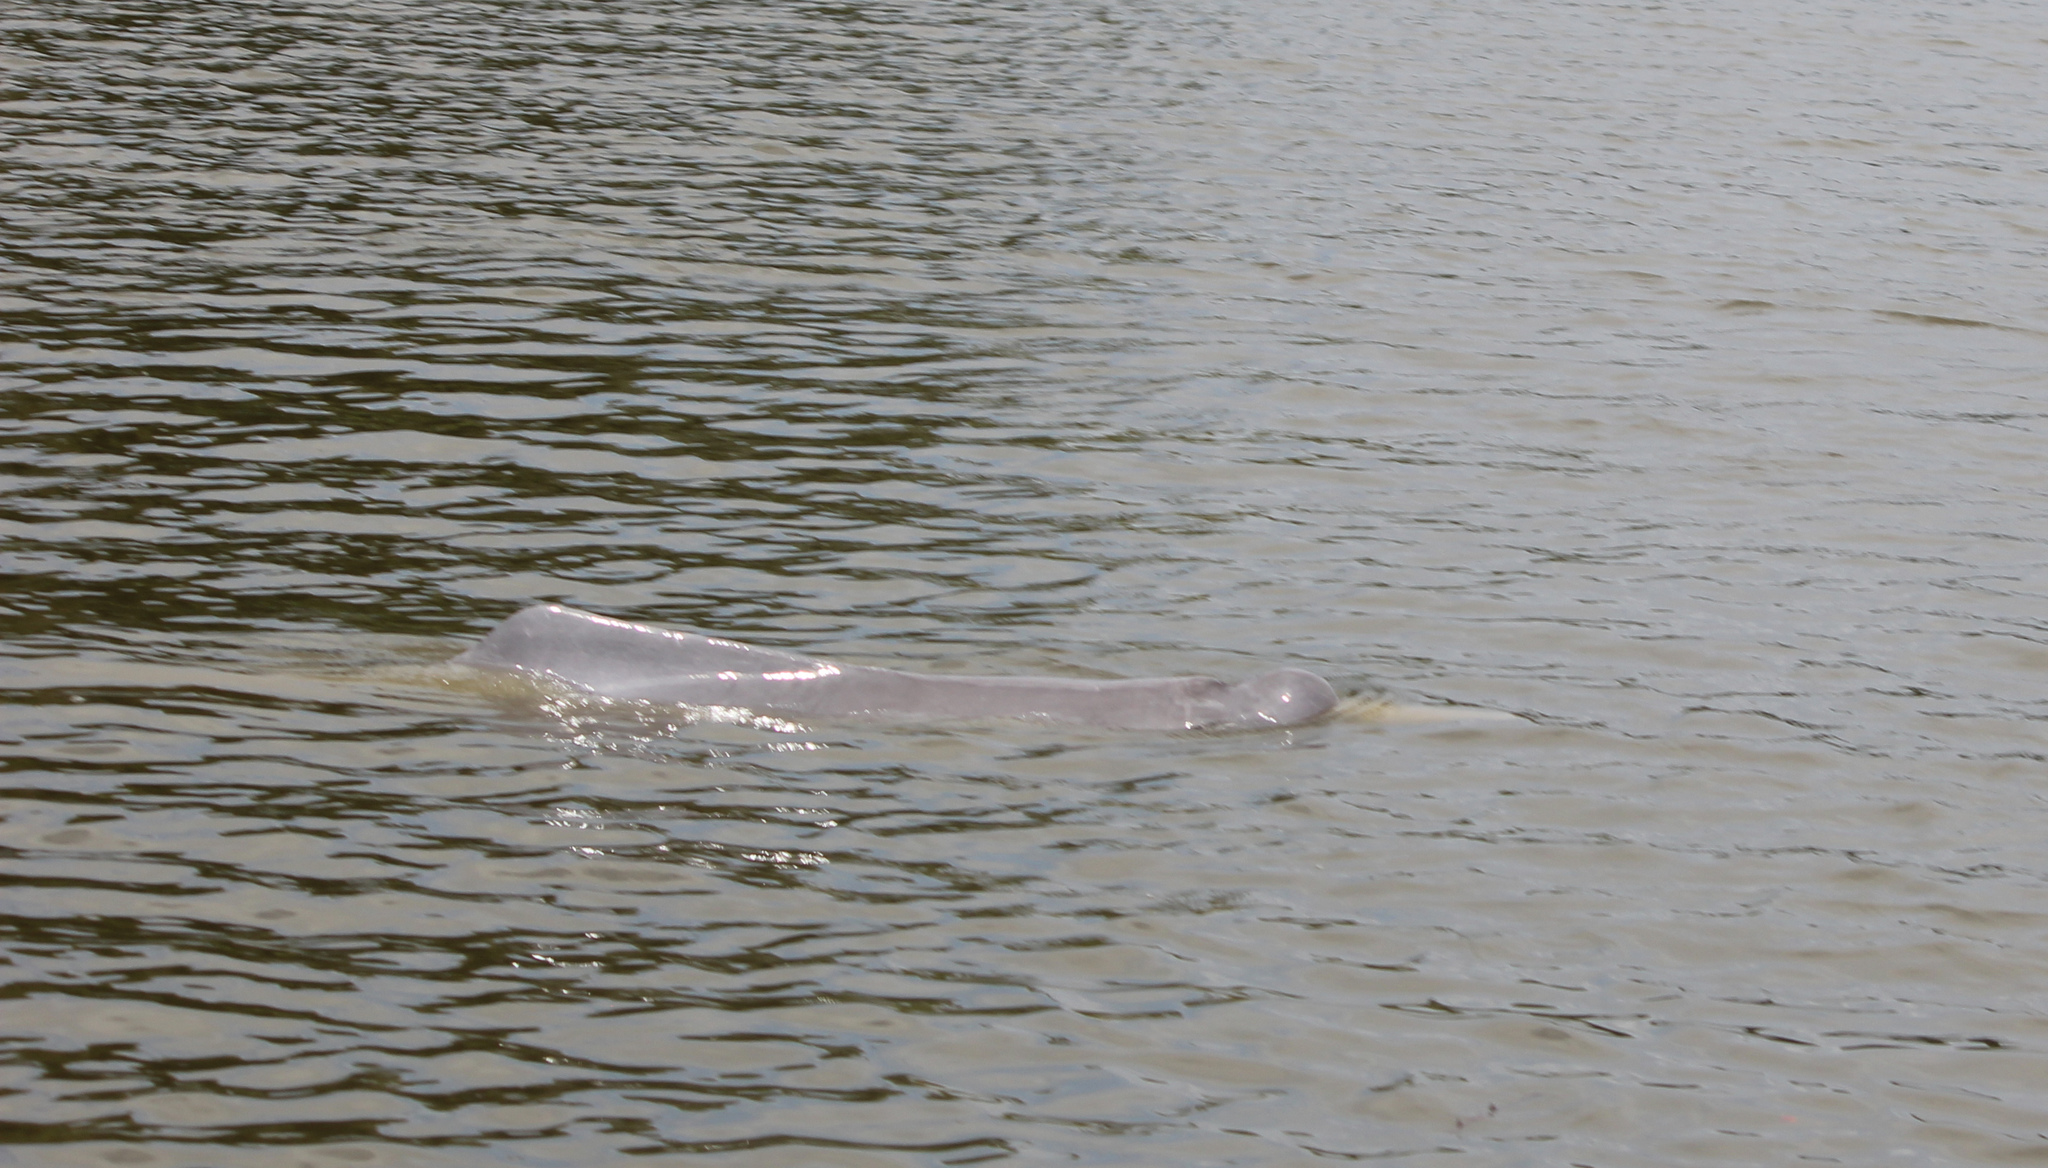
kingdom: Animalia
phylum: Chordata
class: Mammalia
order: Cetacea
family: Iniidae
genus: Inia
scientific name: Inia geoffrensis
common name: Amazon river dolphin
